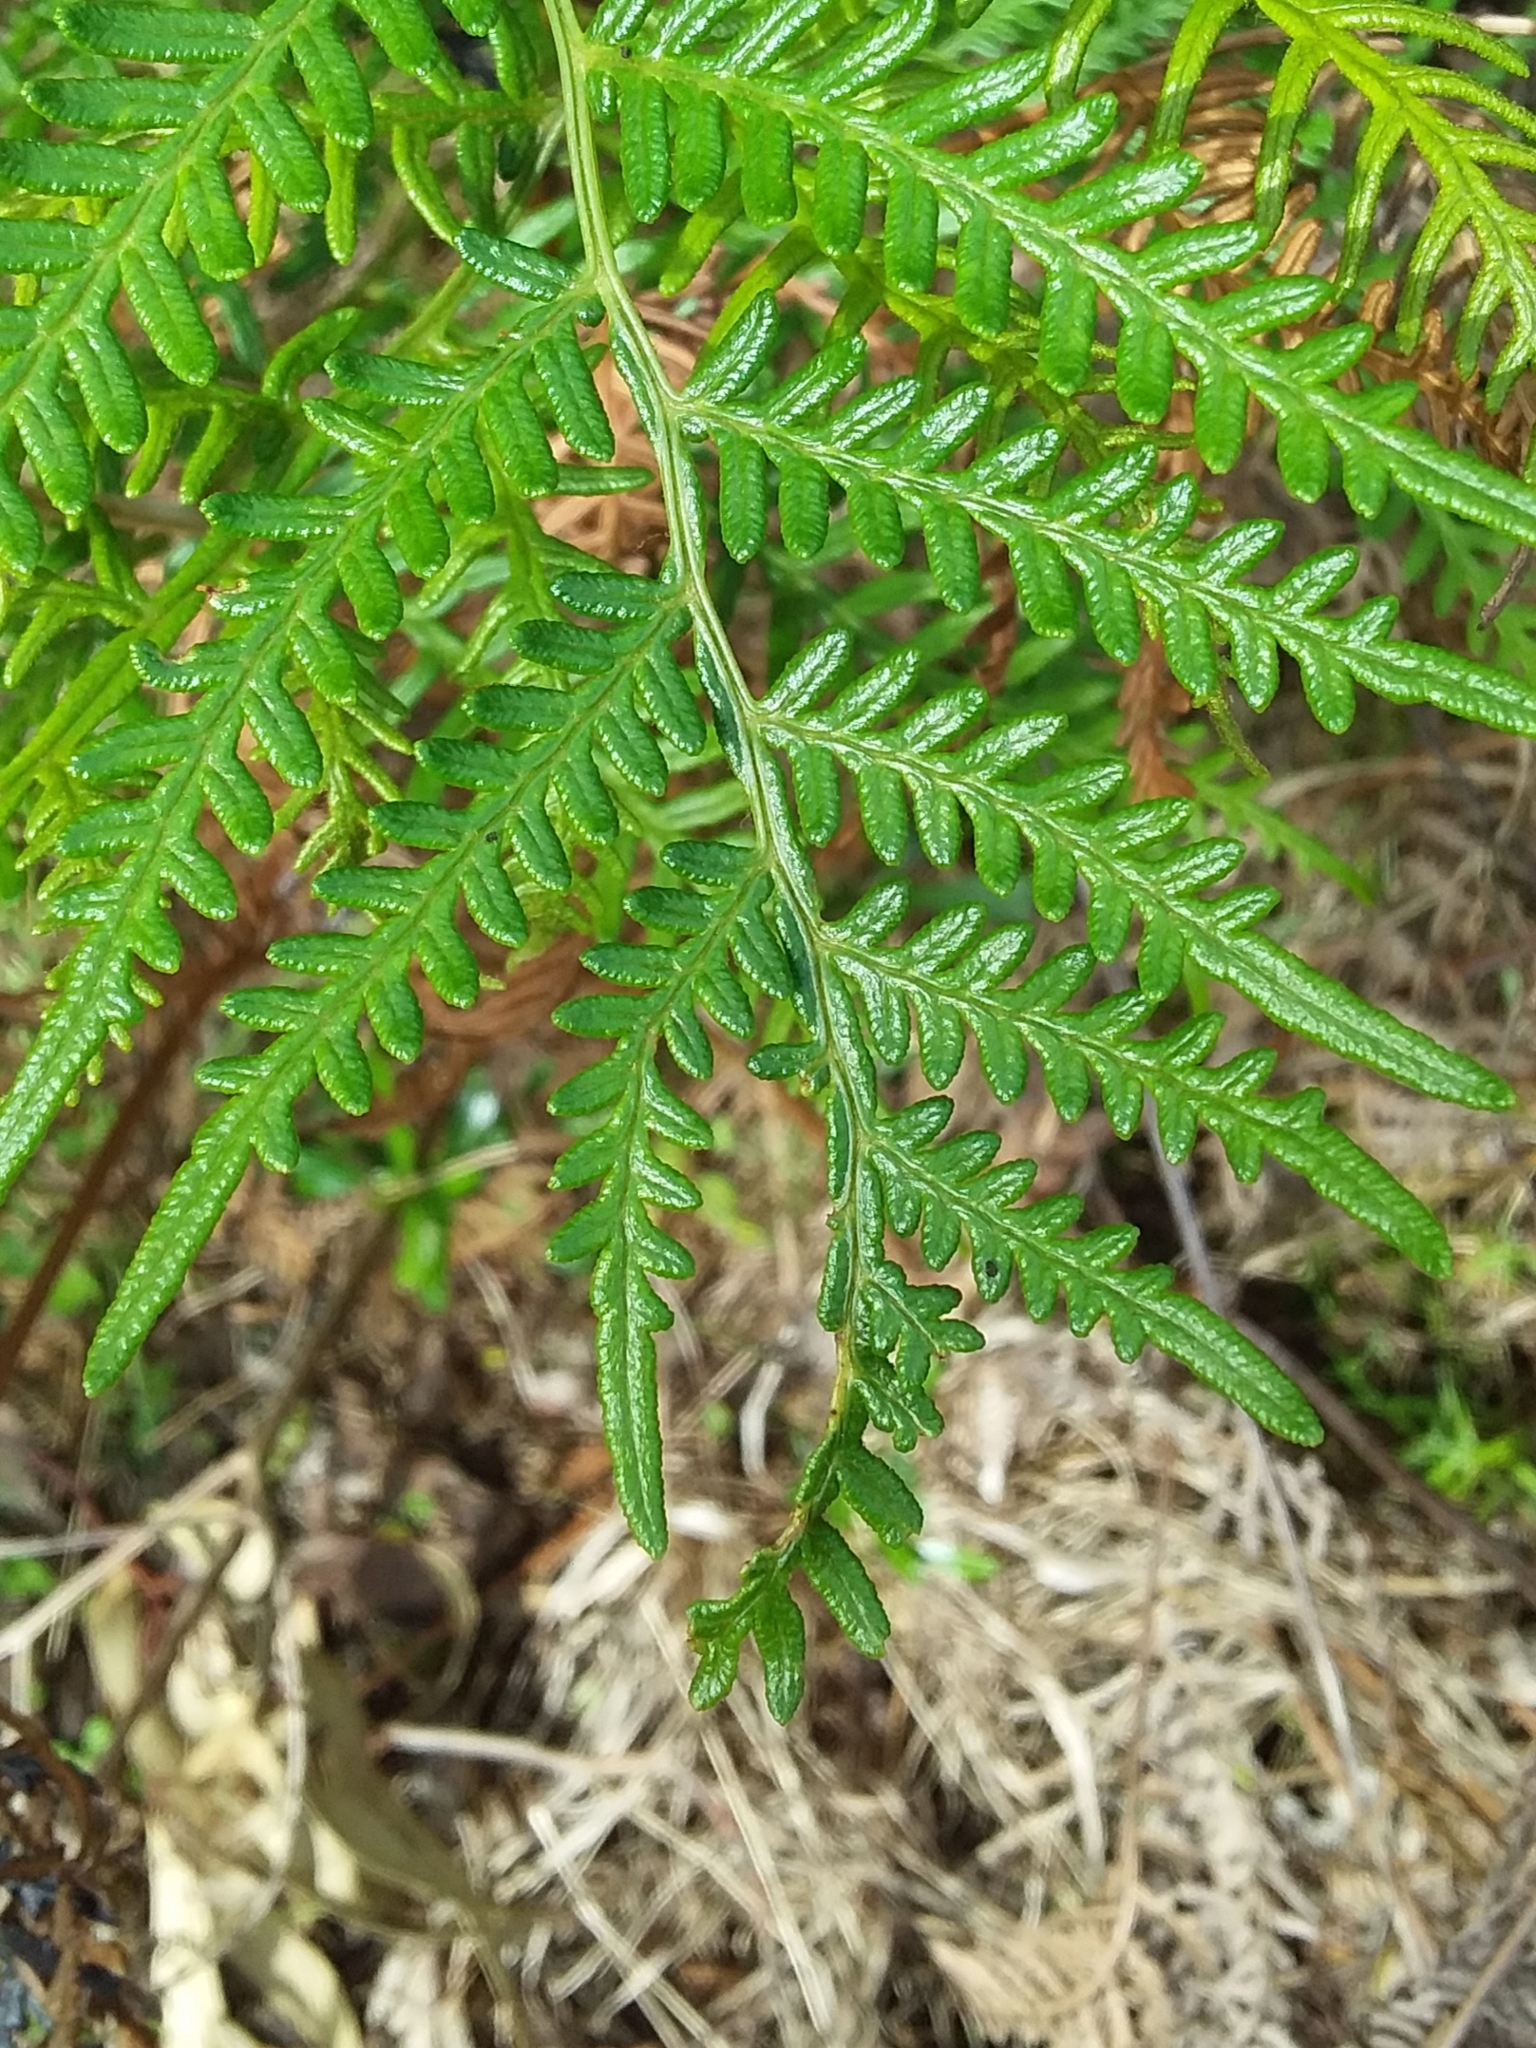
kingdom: Plantae
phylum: Tracheophyta
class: Polypodiopsida
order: Polypodiales
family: Dennstaedtiaceae
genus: Pteridium
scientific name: Pteridium esculentum
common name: Bracken fern
